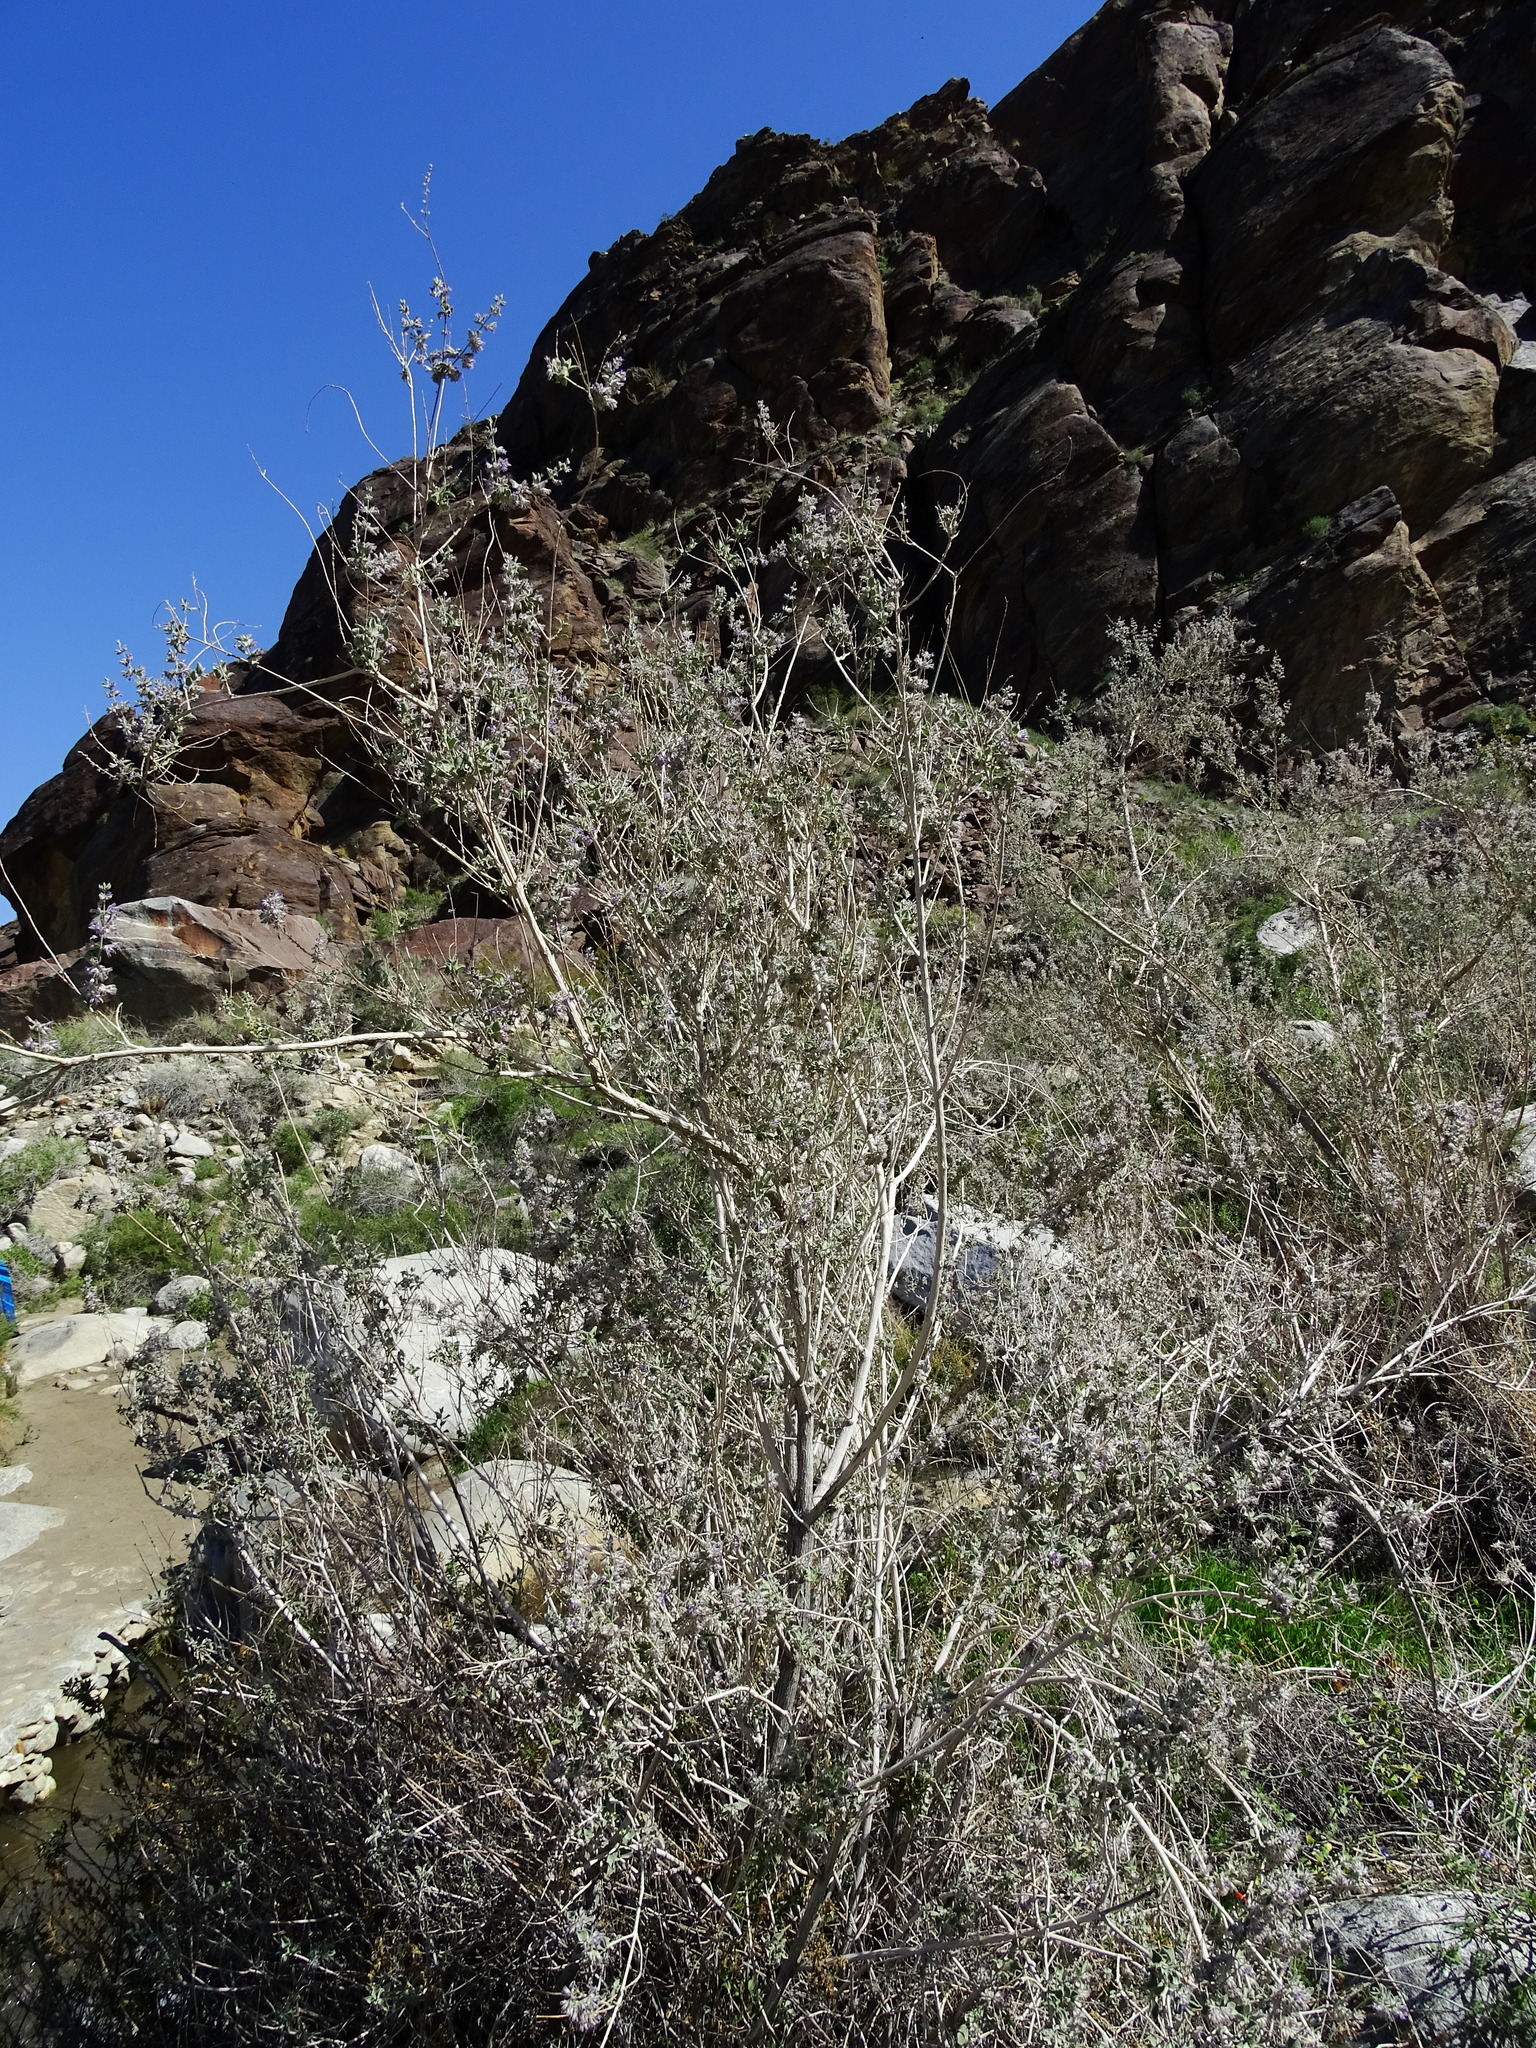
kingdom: Plantae
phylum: Tracheophyta
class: Magnoliopsida
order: Lamiales
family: Lamiaceae
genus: Condea
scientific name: Condea emoryi
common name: Chia
